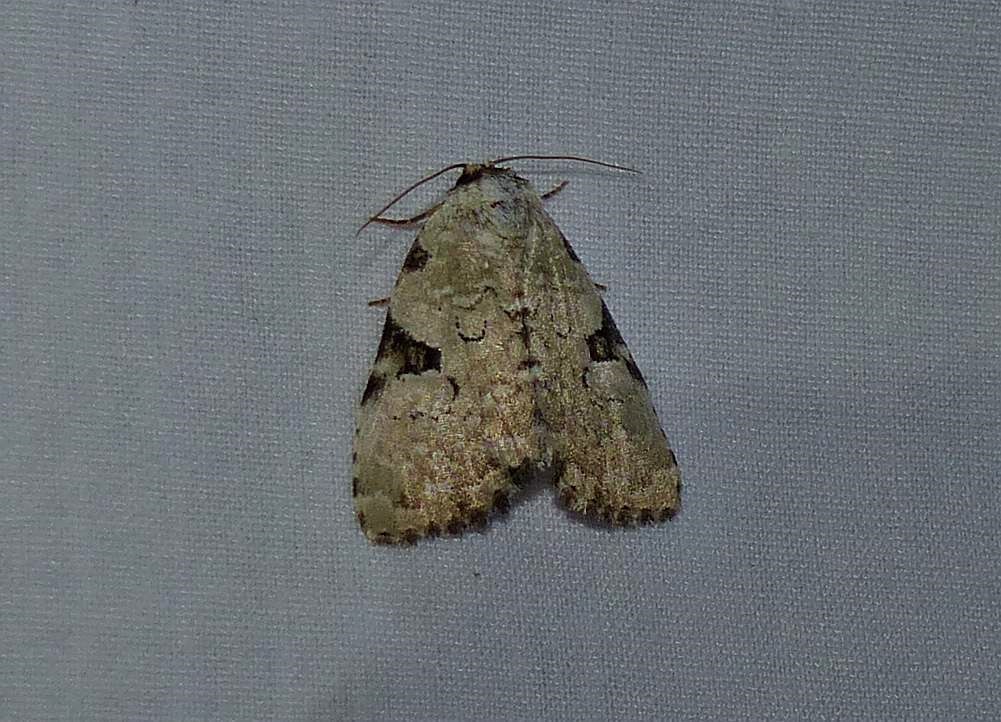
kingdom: Animalia
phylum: Arthropoda
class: Insecta
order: Lepidoptera
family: Noctuidae
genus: Leuconycta
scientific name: Leuconycta diphteroides
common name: Green leuconycta moth
